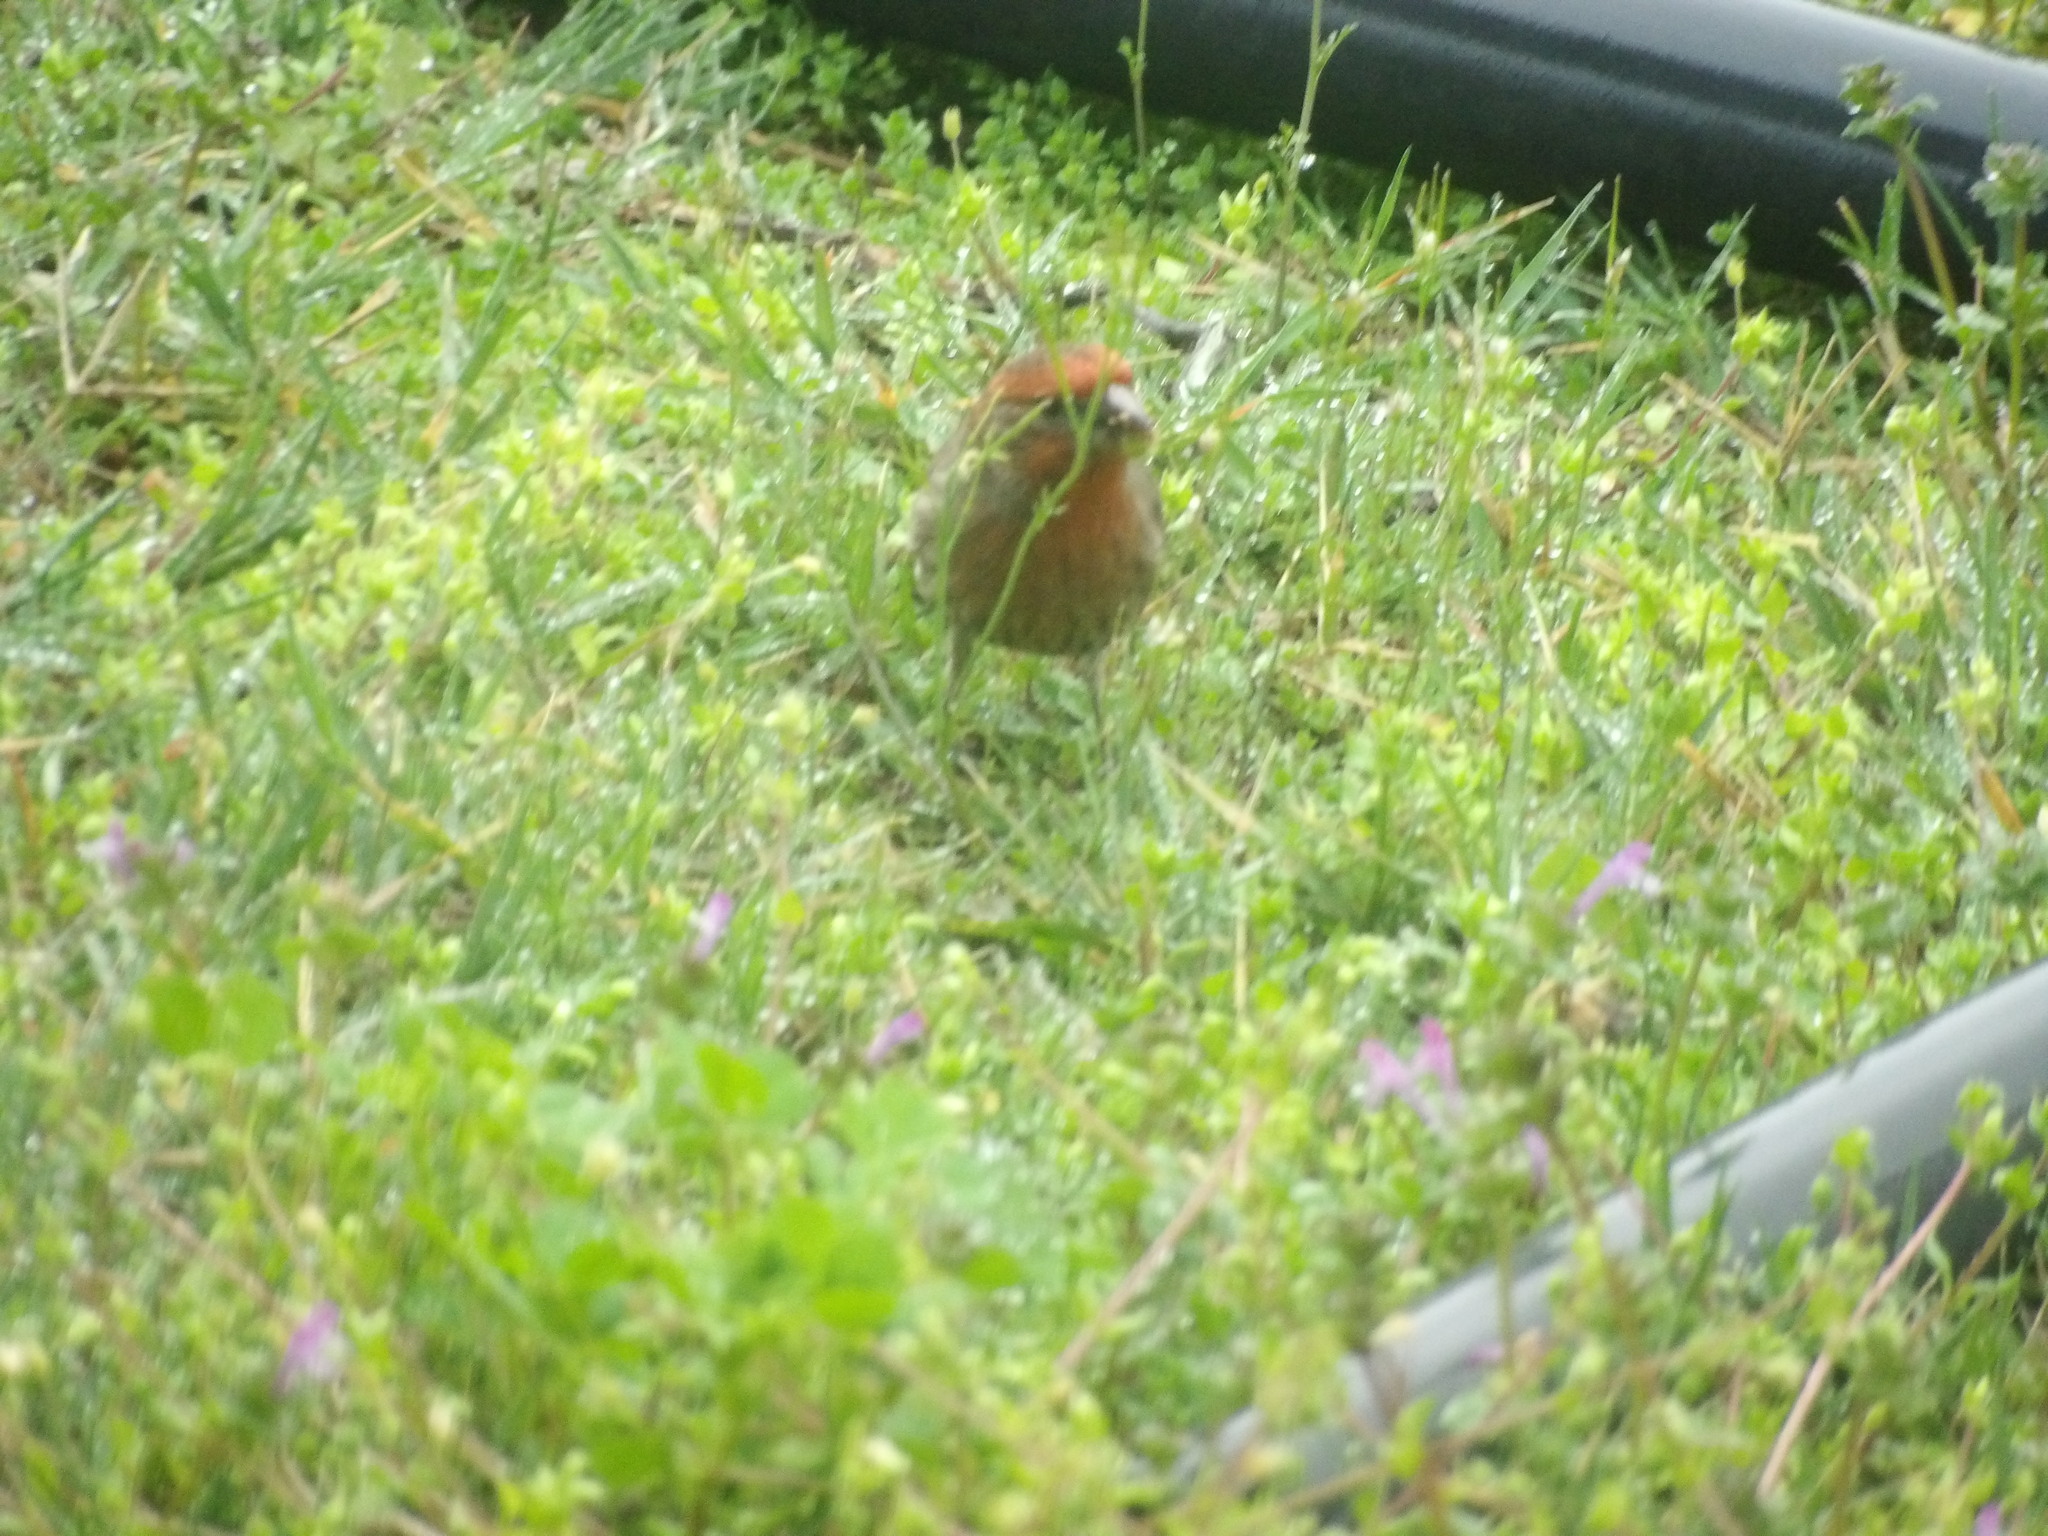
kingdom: Animalia
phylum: Chordata
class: Aves
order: Passeriformes
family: Fringillidae
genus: Haemorhous
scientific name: Haemorhous mexicanus
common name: House finch
